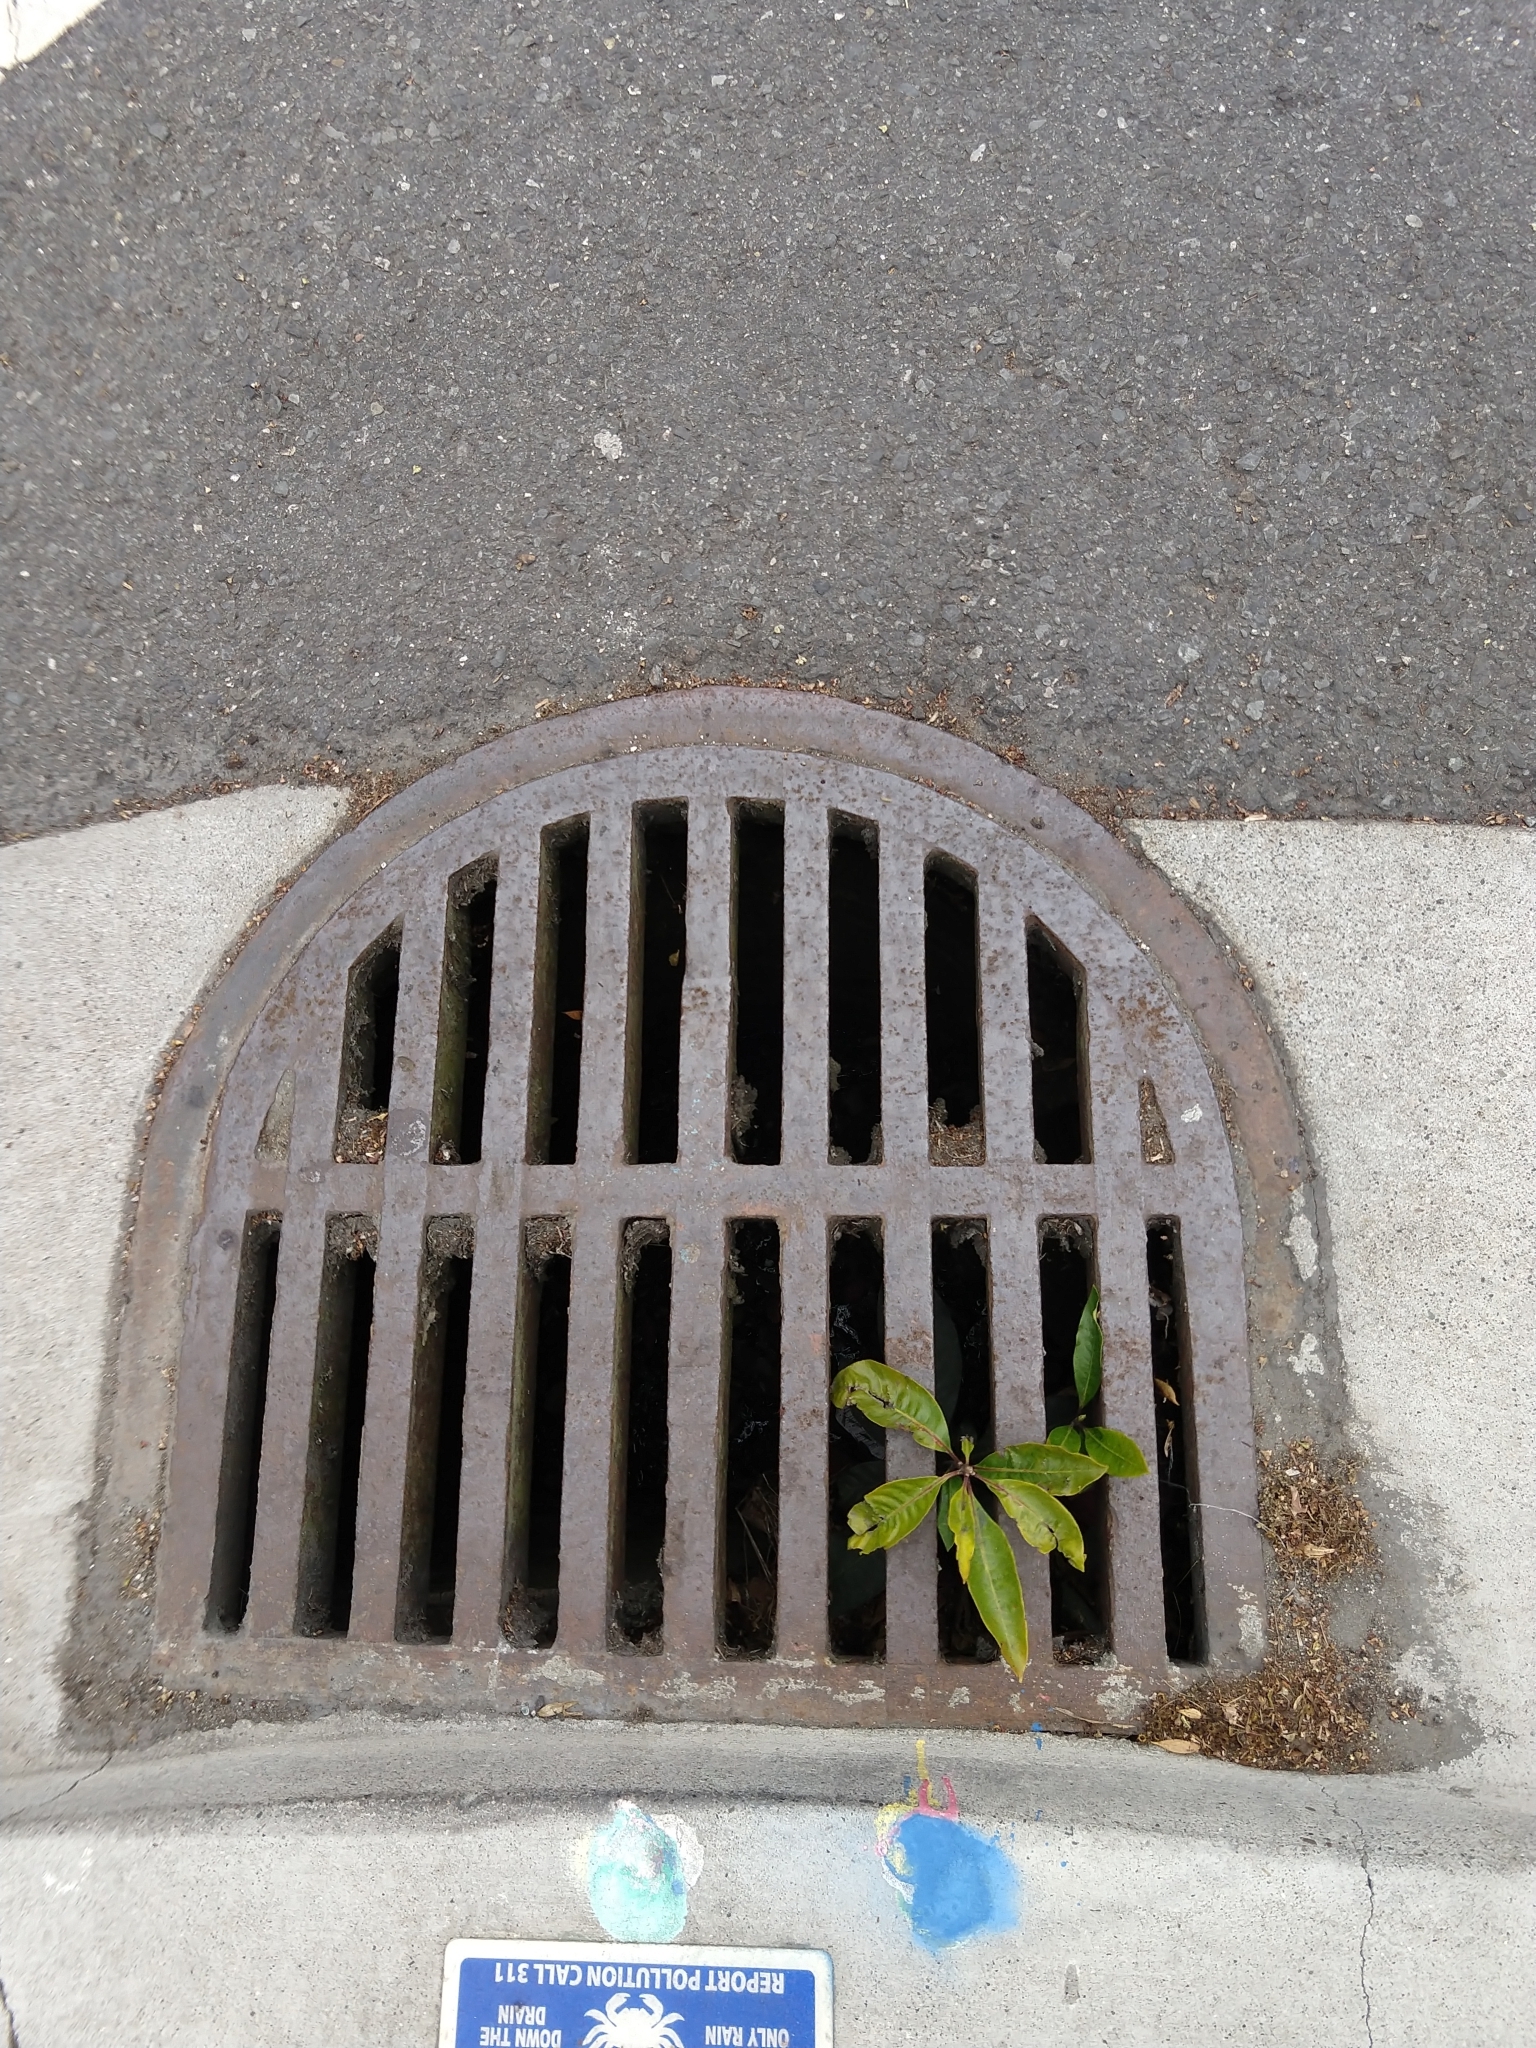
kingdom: Plantae
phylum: Tracheophyta
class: Magnoliopsida
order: Apiales
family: Pittosporaceae
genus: Pittosporum
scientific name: Pittosporum undulatum
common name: Australian cheesewood
